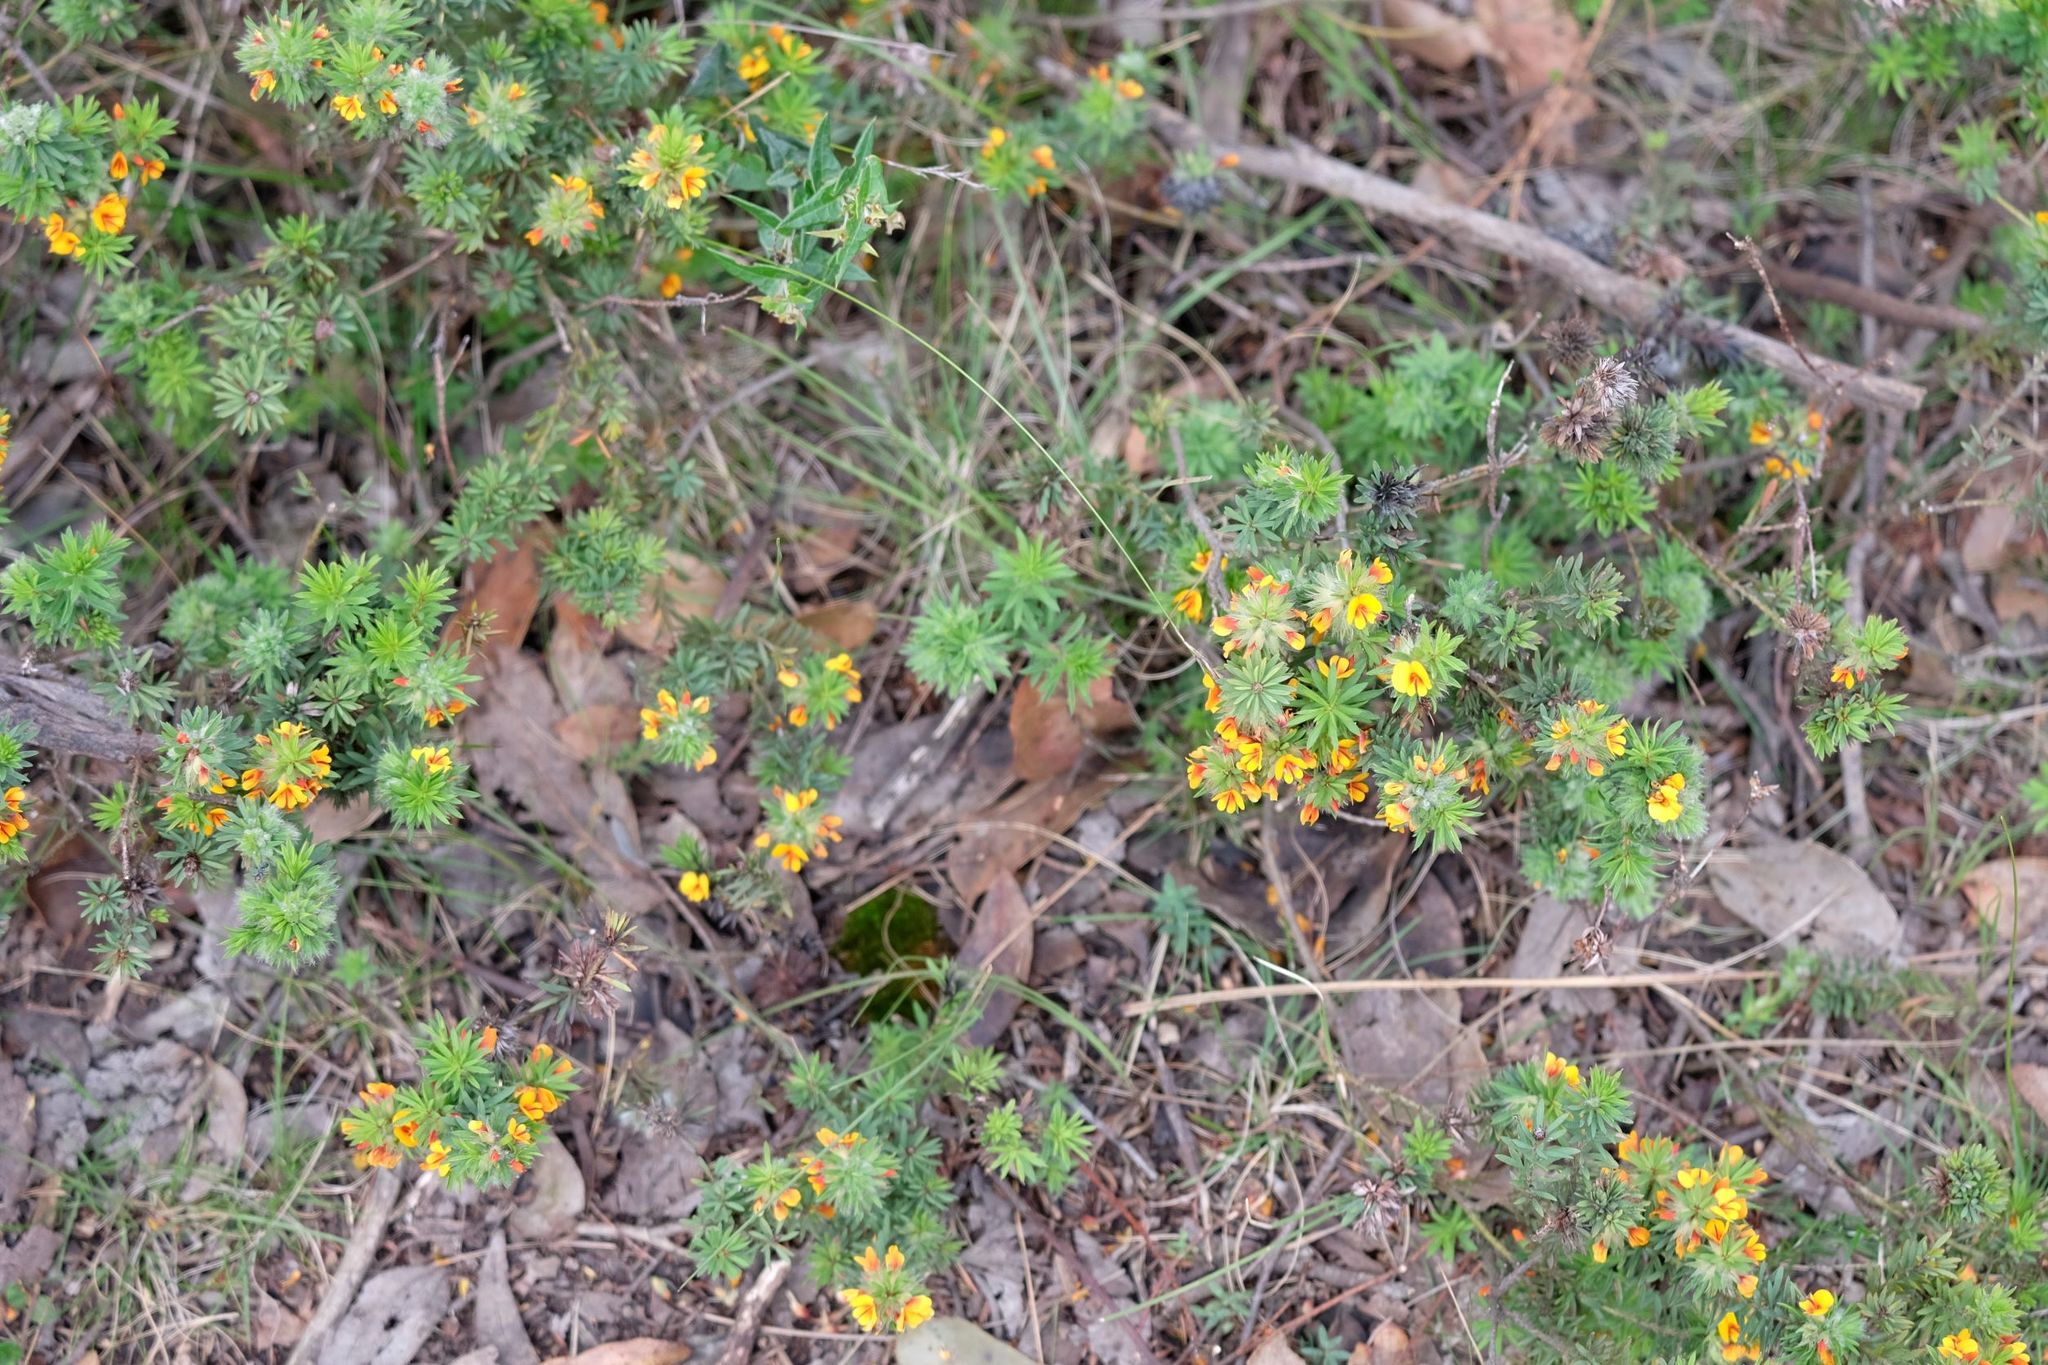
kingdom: Plantae
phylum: Tracheophyta
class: Magnoliopsida
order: Fabales
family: Fabaceae
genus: Pultenaea
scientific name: Pultenaea humilis
